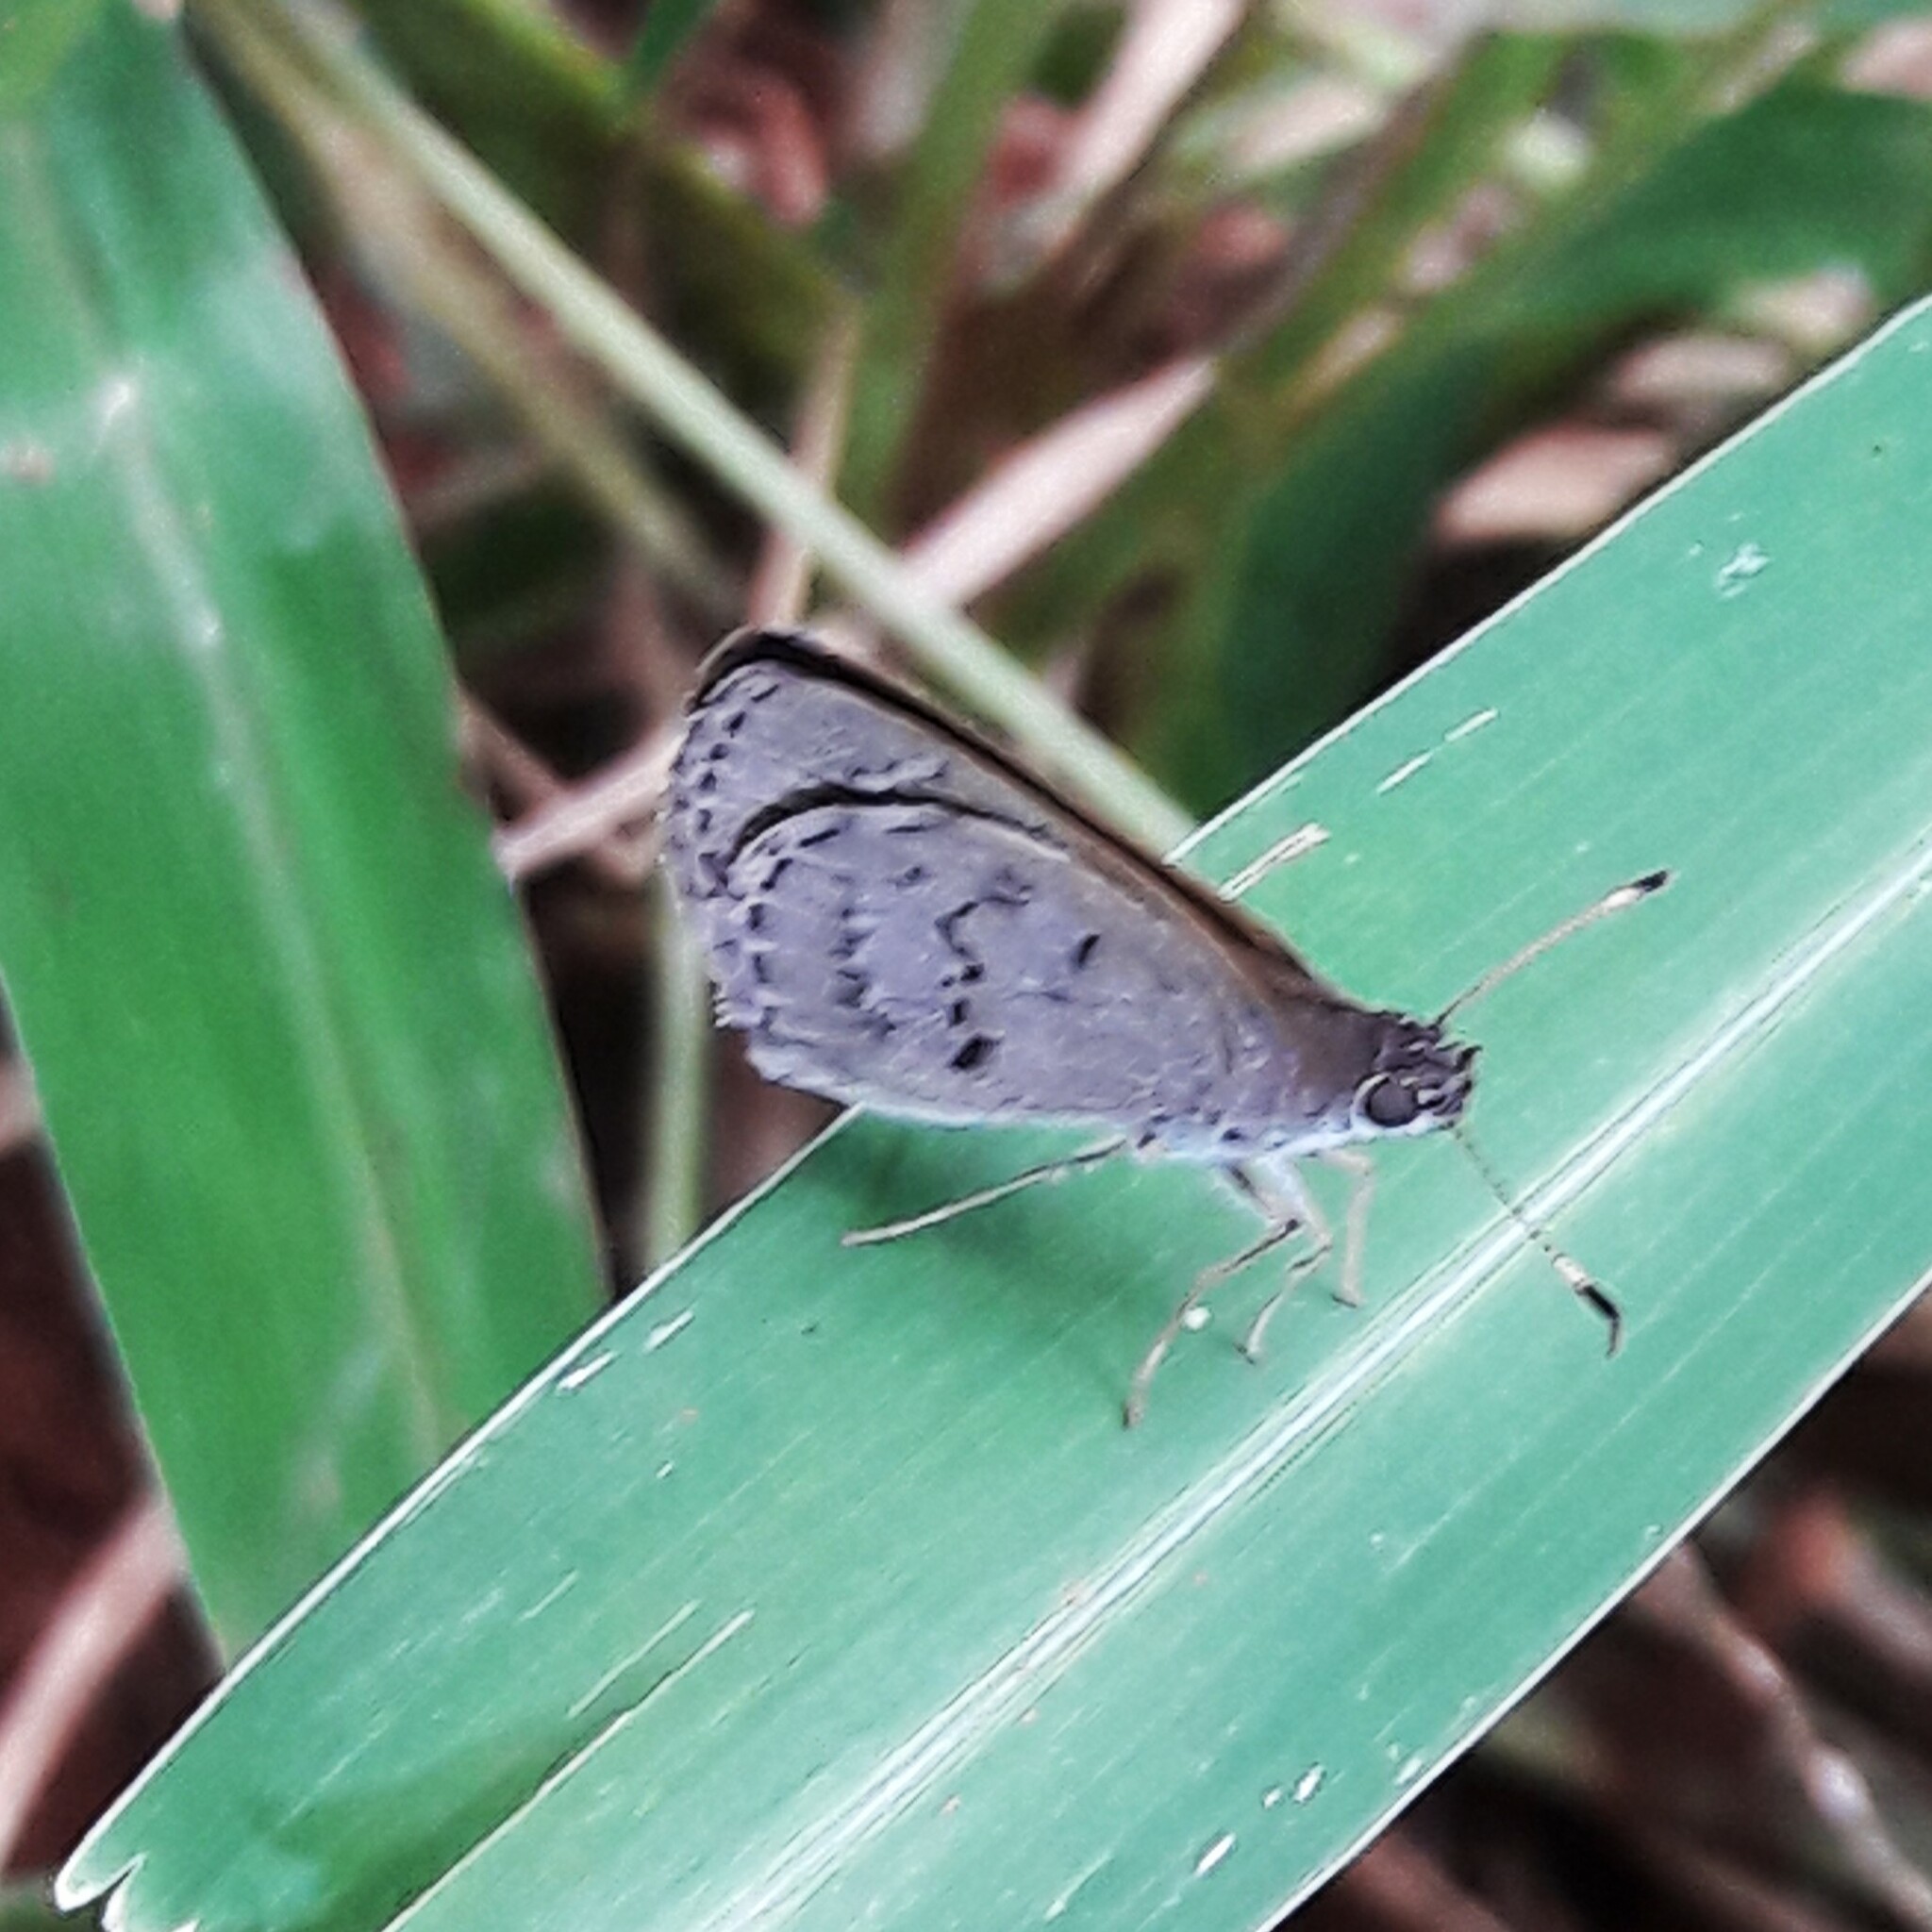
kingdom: Animalia
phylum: Arthropoda
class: Insecta
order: Lepidoptera
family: Hesperiidae
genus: Cymaenes
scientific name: Cymaenes gisca
